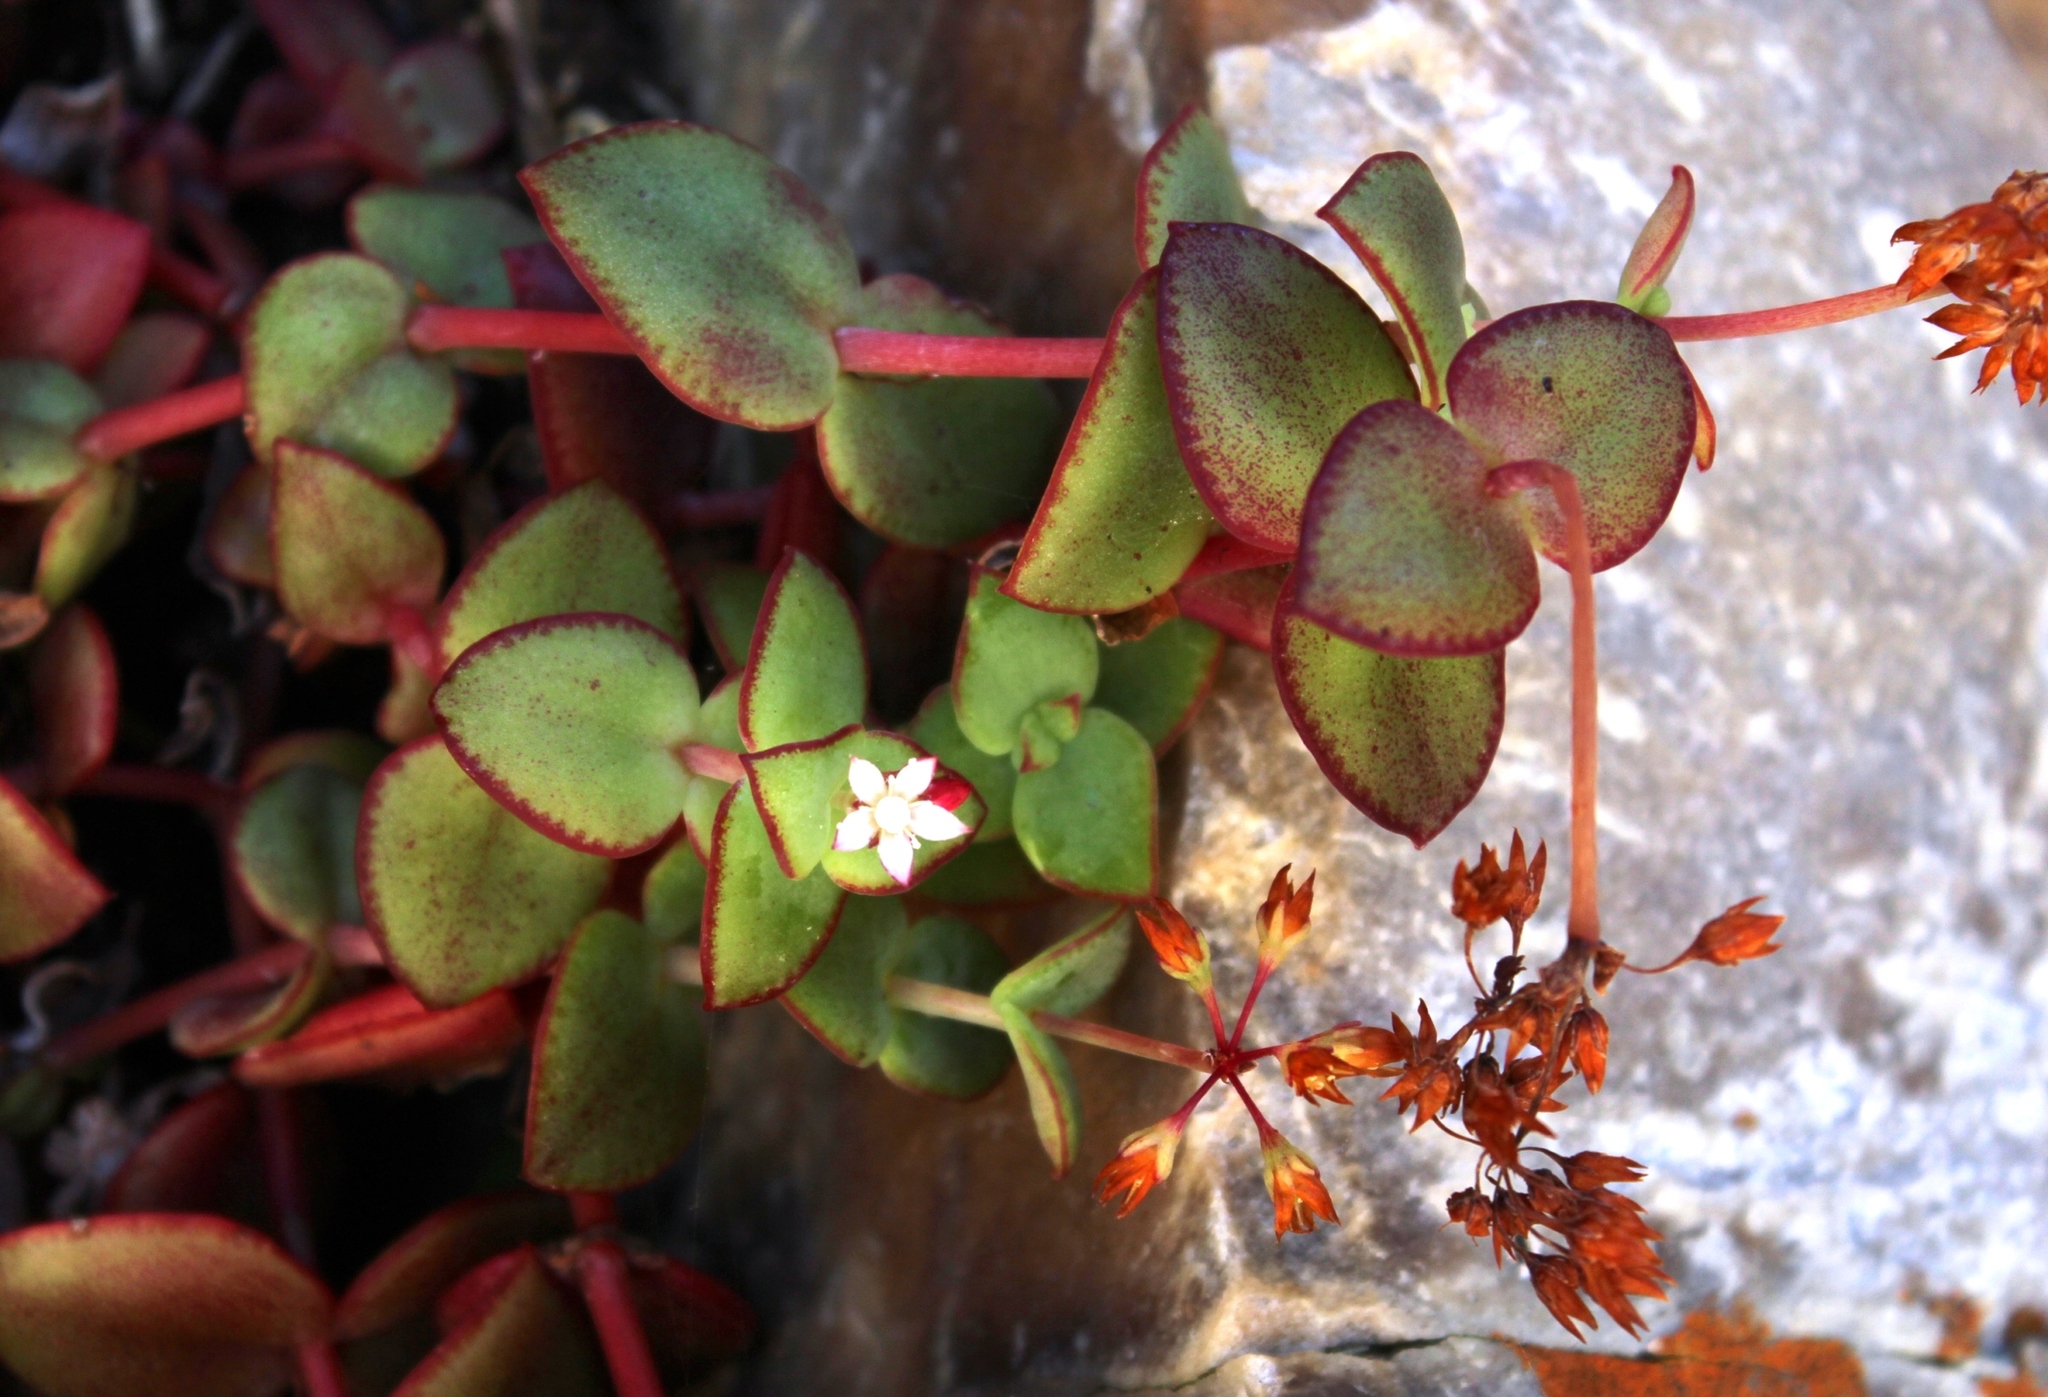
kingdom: Plantae
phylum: Tracheophyta
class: Magnoliopsida
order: Saxifragales
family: Crassulaceae
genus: Crassula
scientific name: Crassula pellucida
